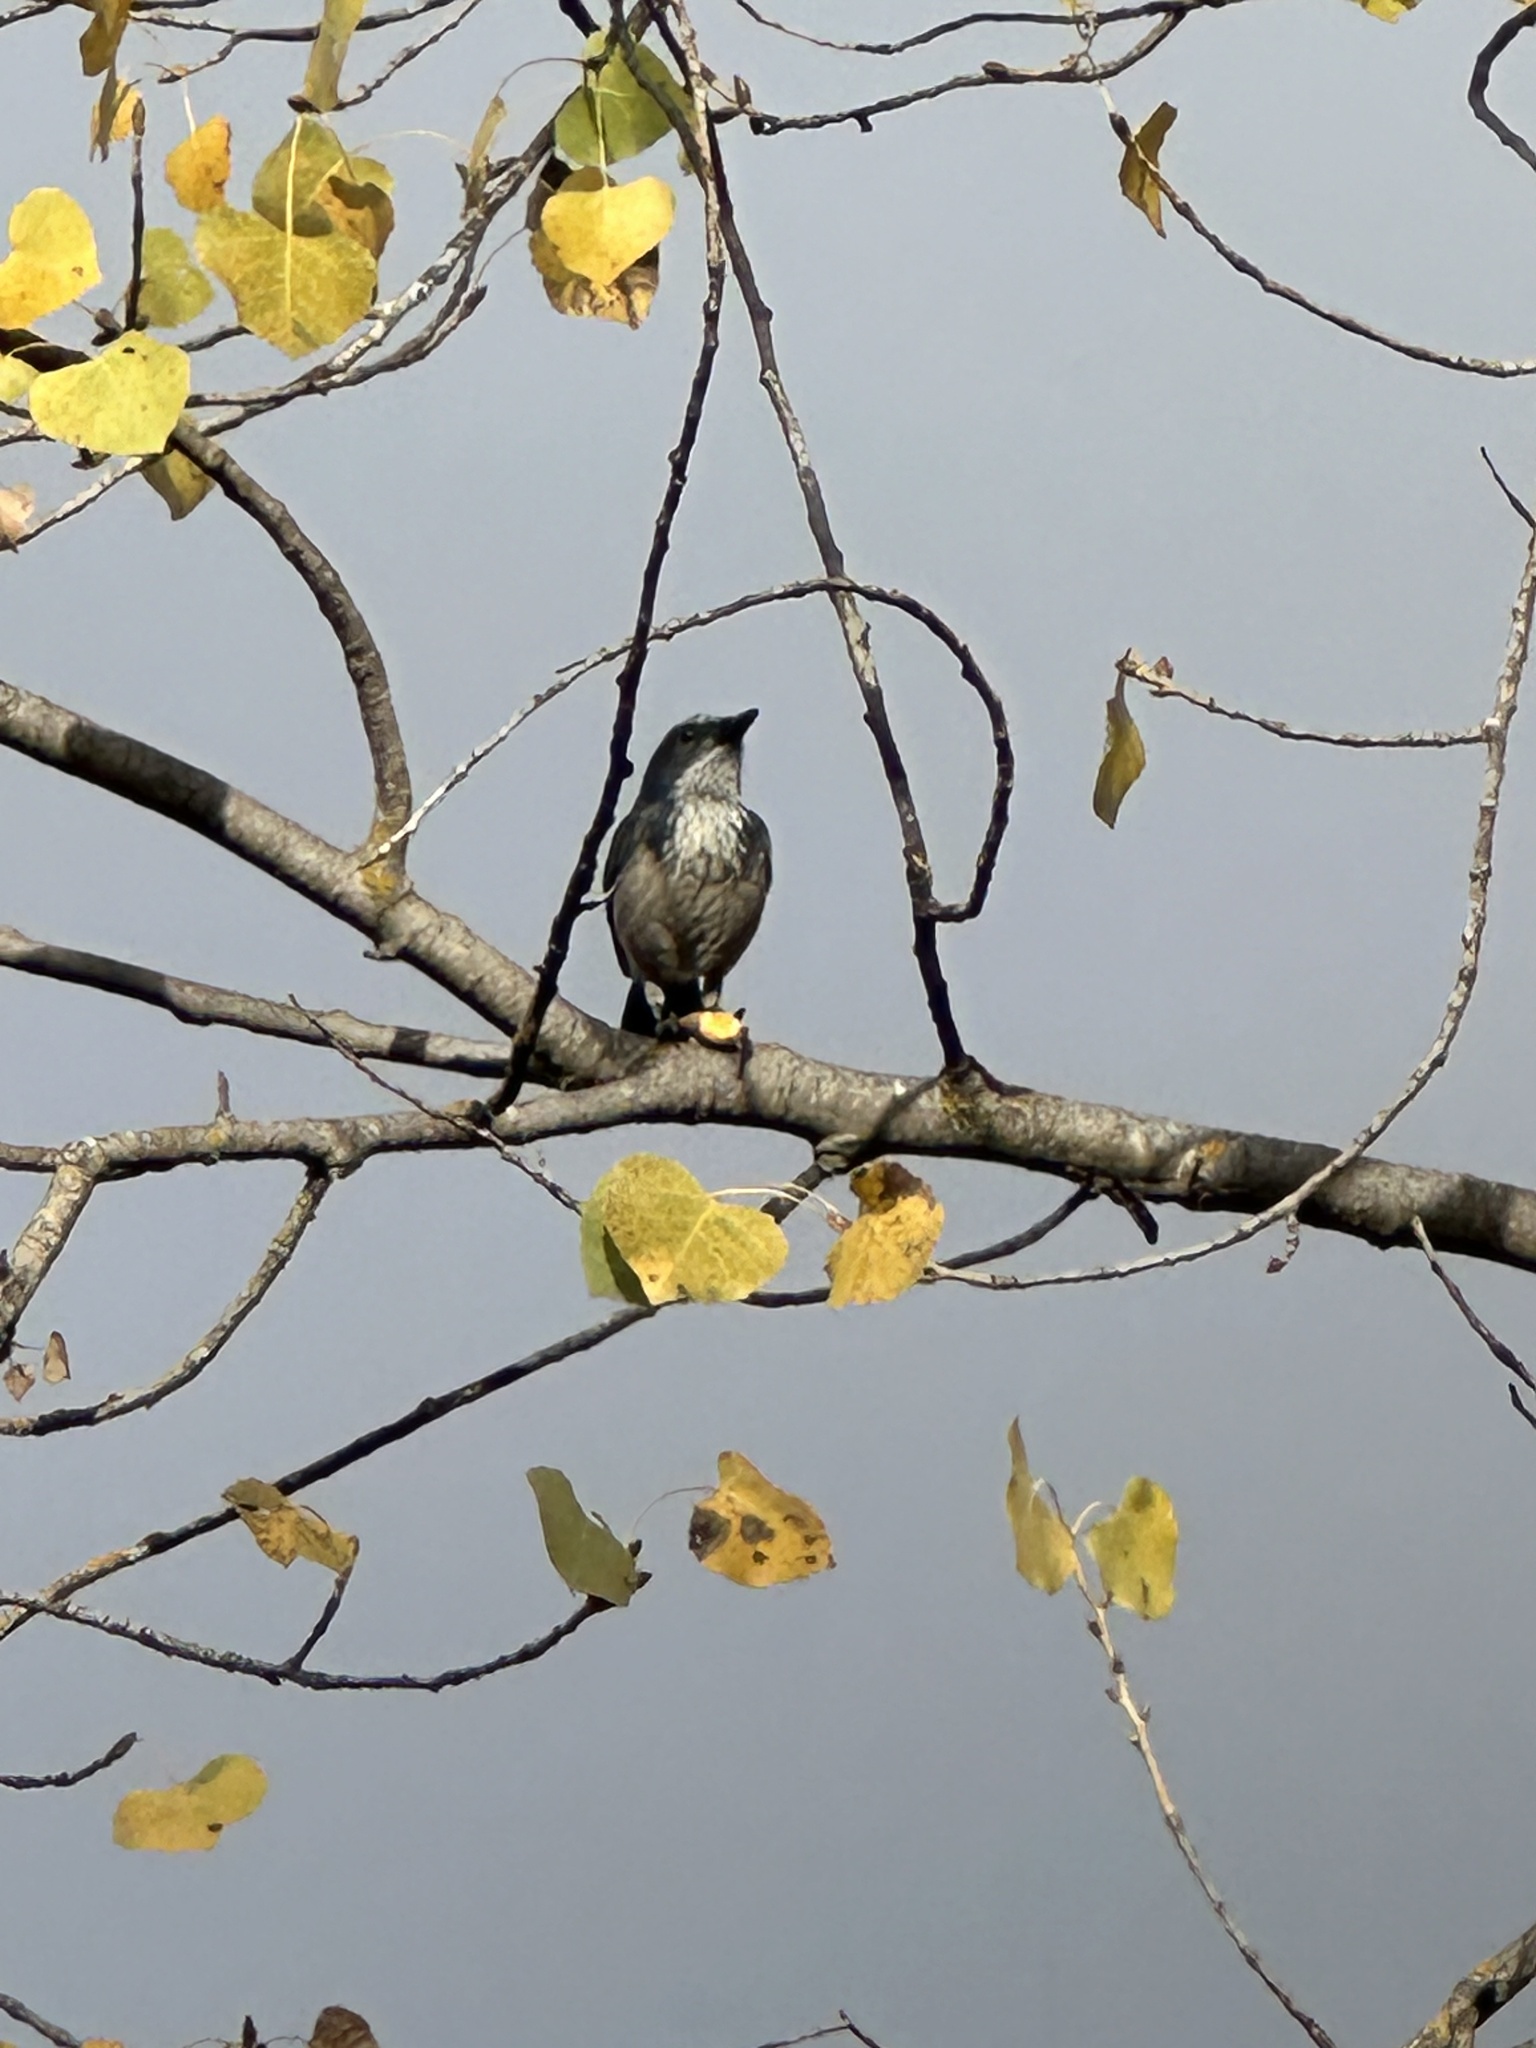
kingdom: Animalia
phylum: Chordata
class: Aves
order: Passeriformes
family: Corvidae
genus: Aphelocoma
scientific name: Aphelocoma californica
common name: California scrub-jay
